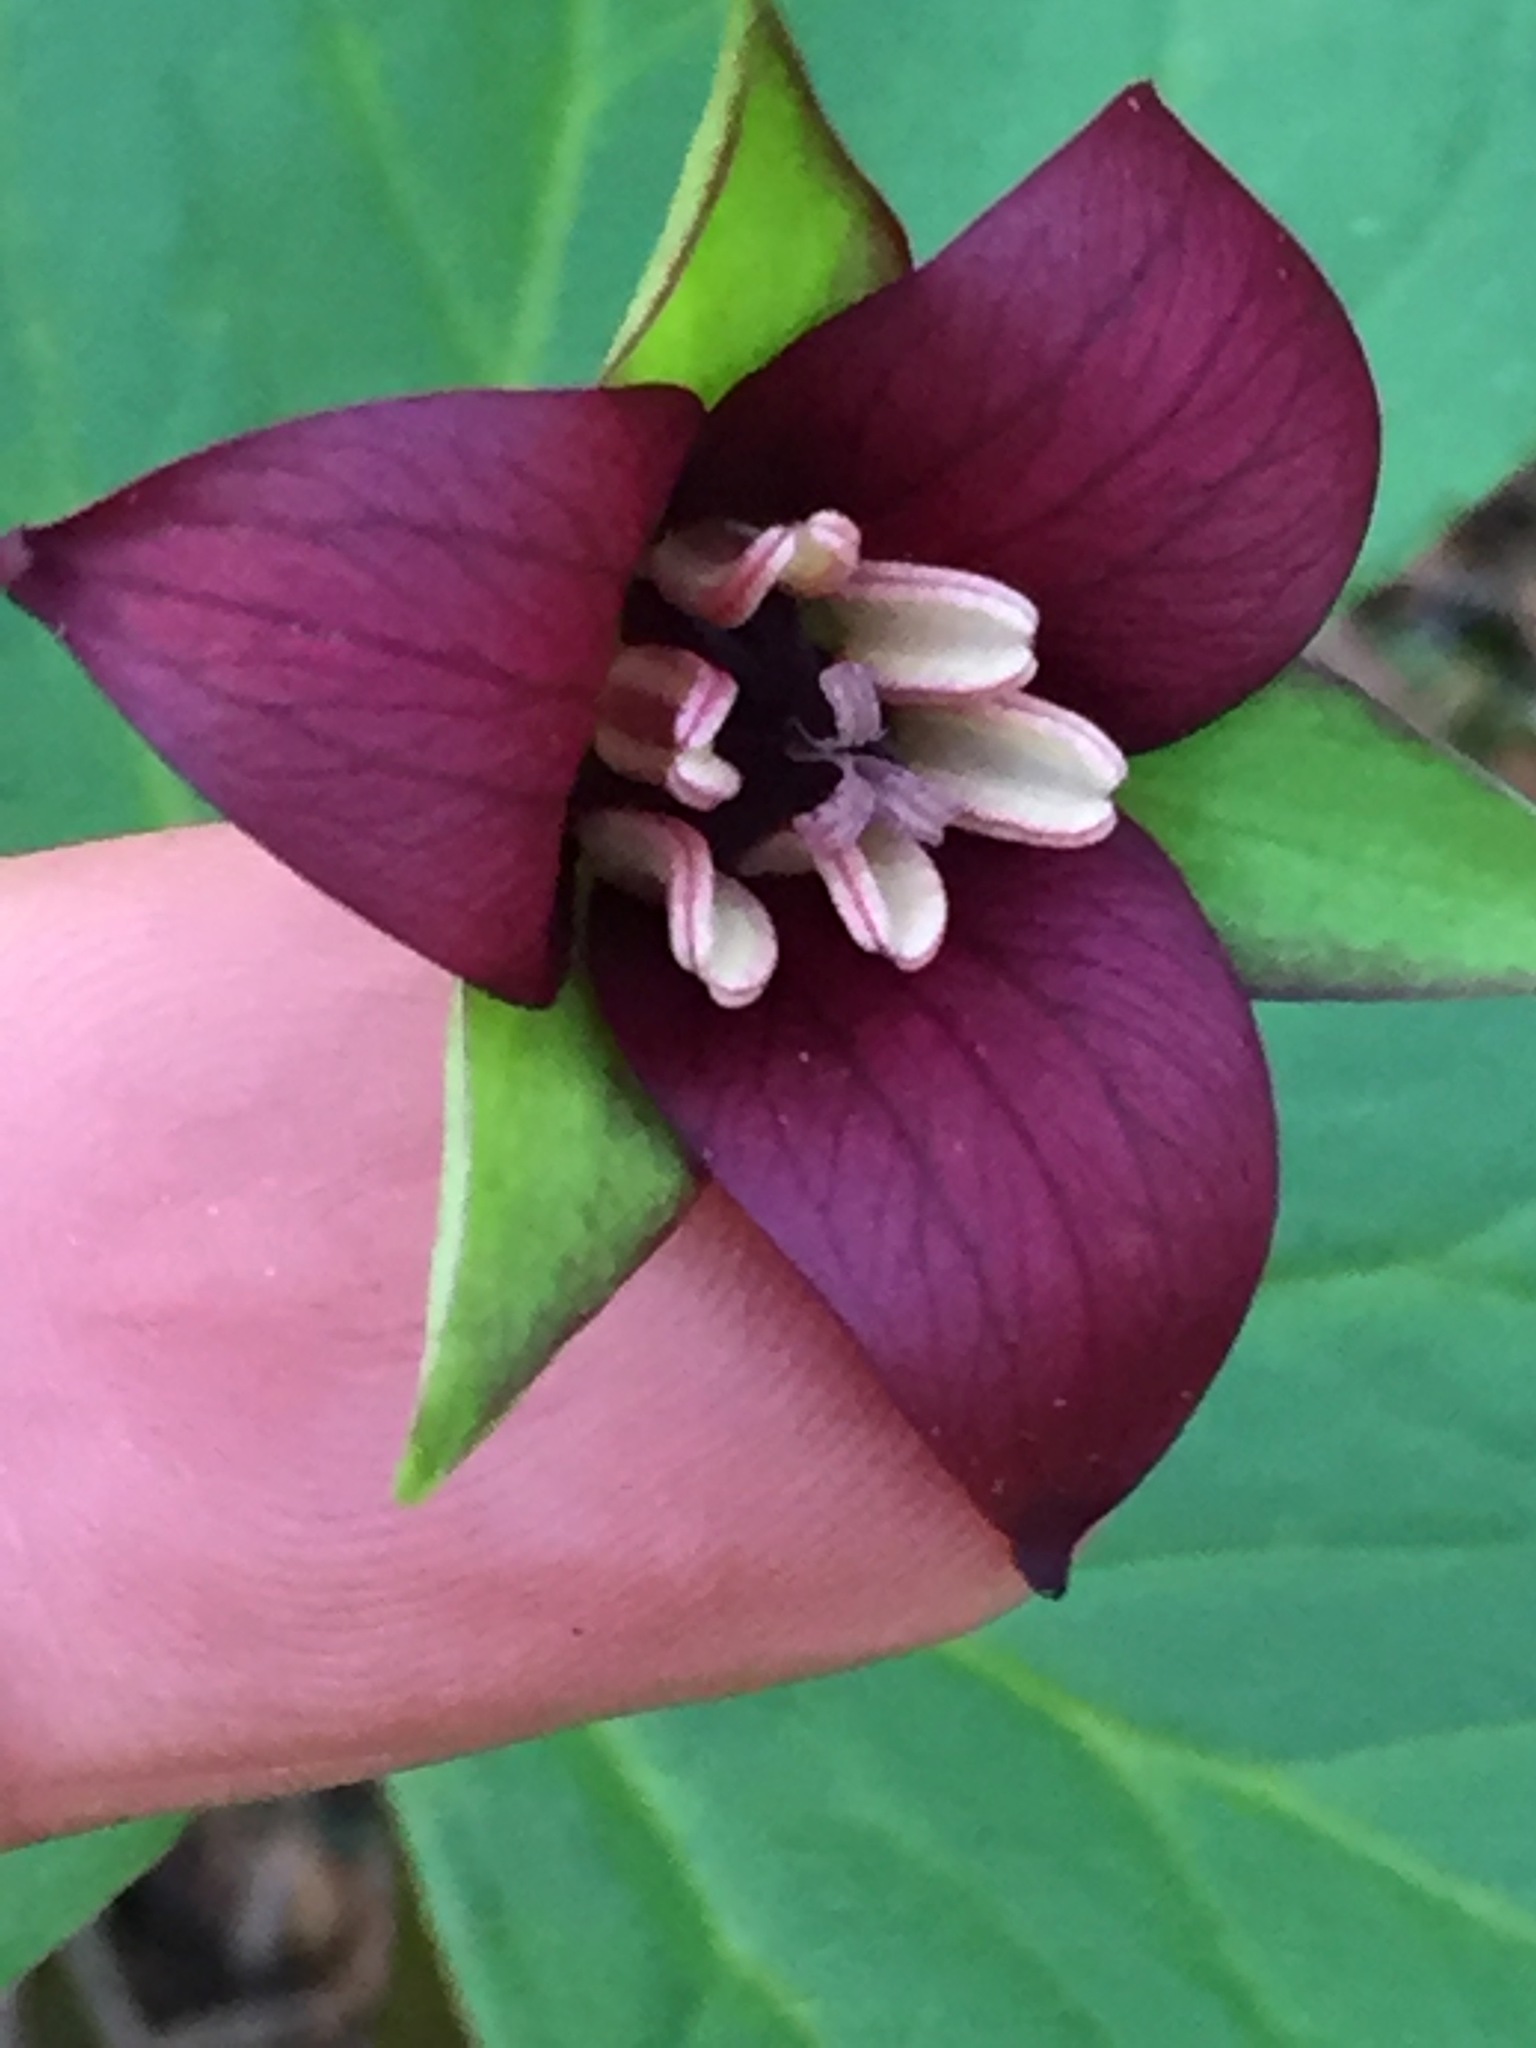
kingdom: Plantae
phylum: Tracheophyta
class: Liliopsida
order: Liliales
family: Melanthiaceae
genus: Trillium
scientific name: Trillium erectum
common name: Purple trillium
